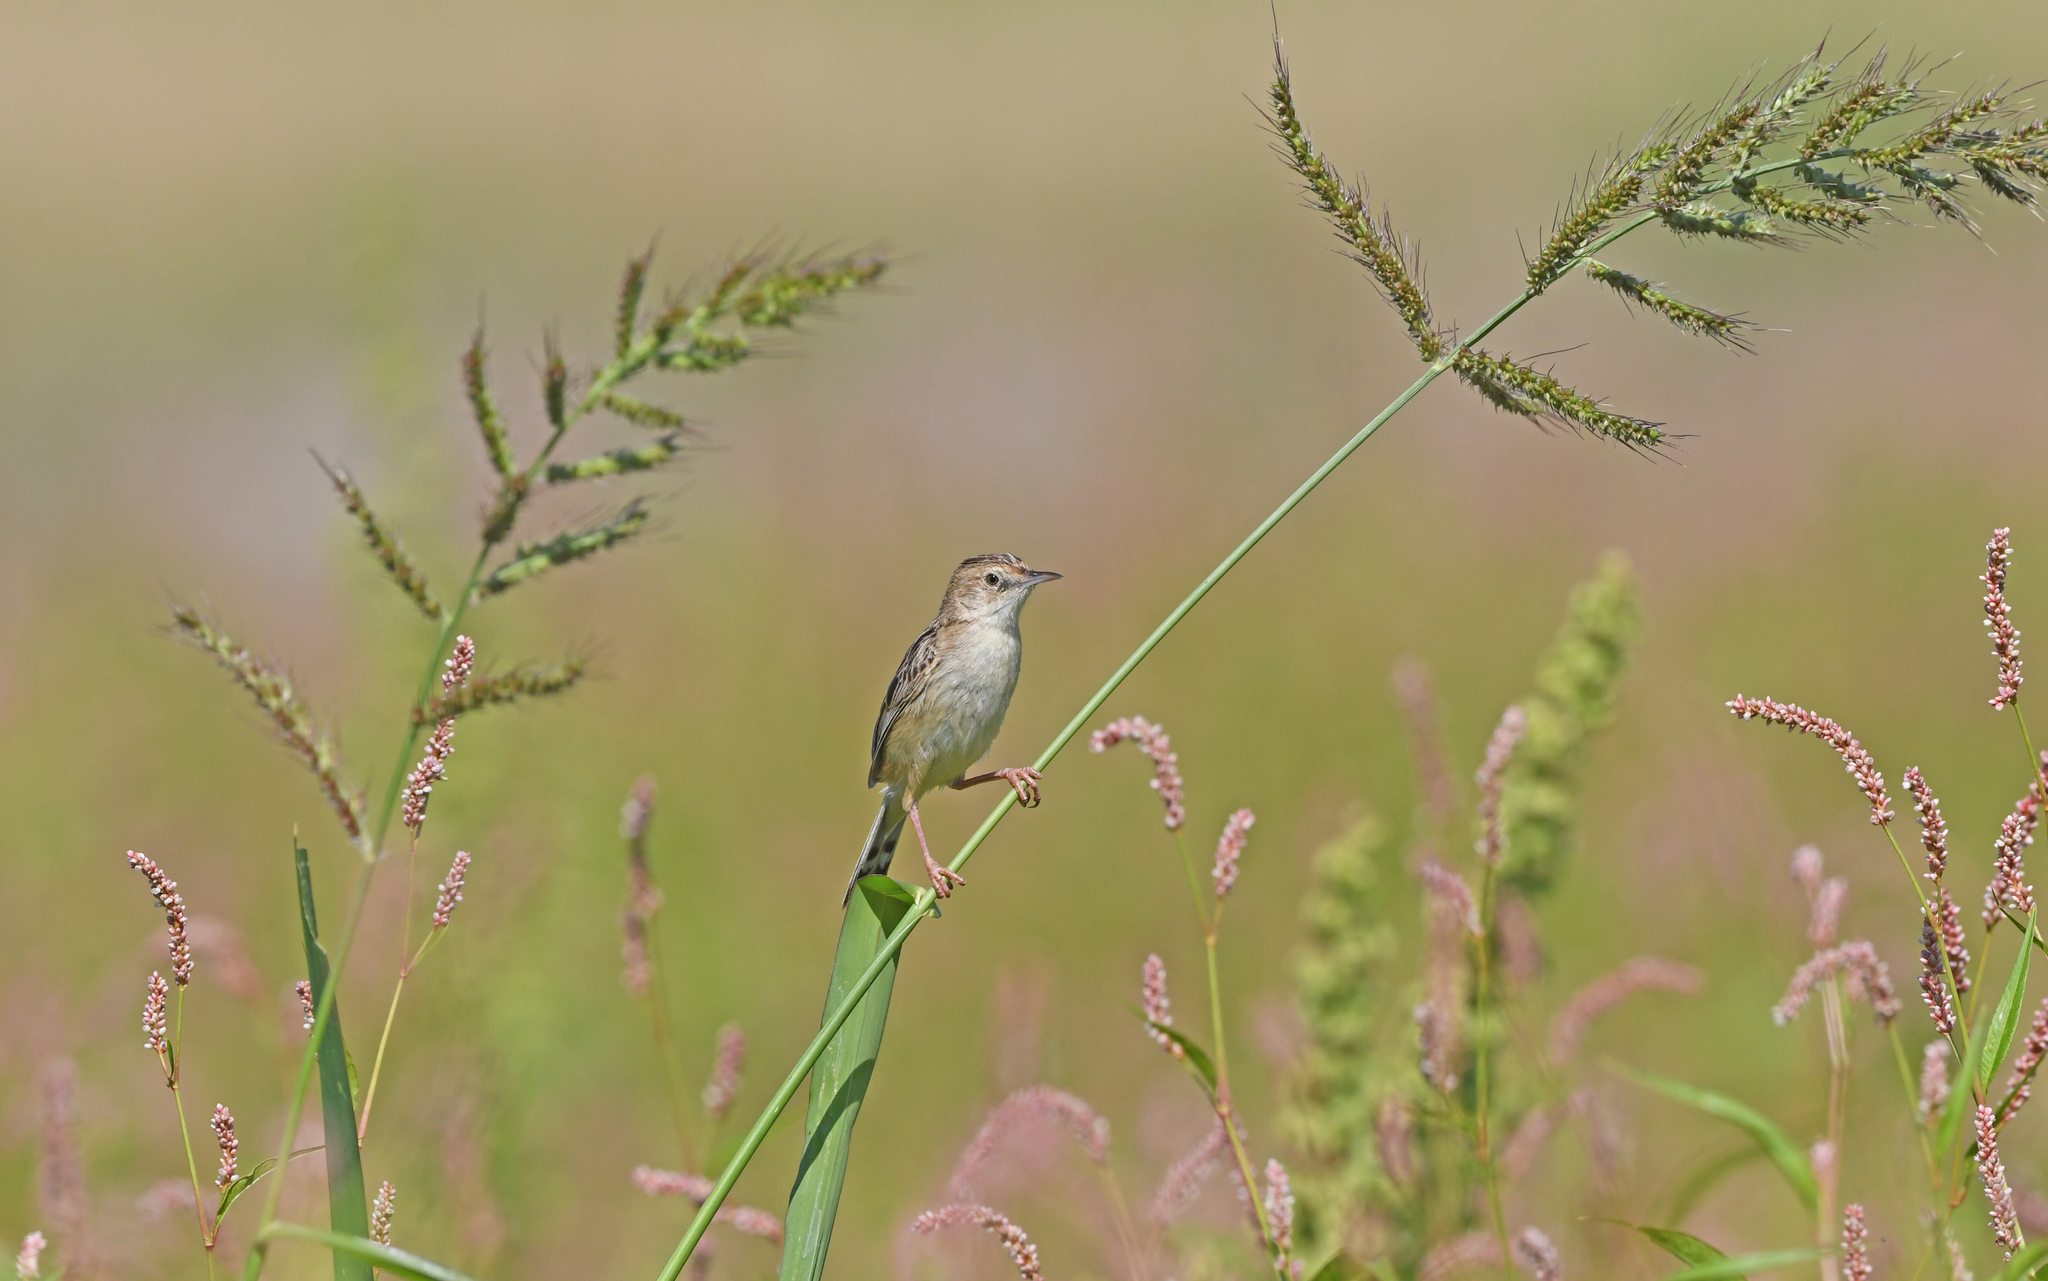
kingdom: Animalia
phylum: Chordata
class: Aves
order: Passeriformes
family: Cisticolidae
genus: Cisticola
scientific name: Cisticola juncidis
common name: Zitting cisticola
